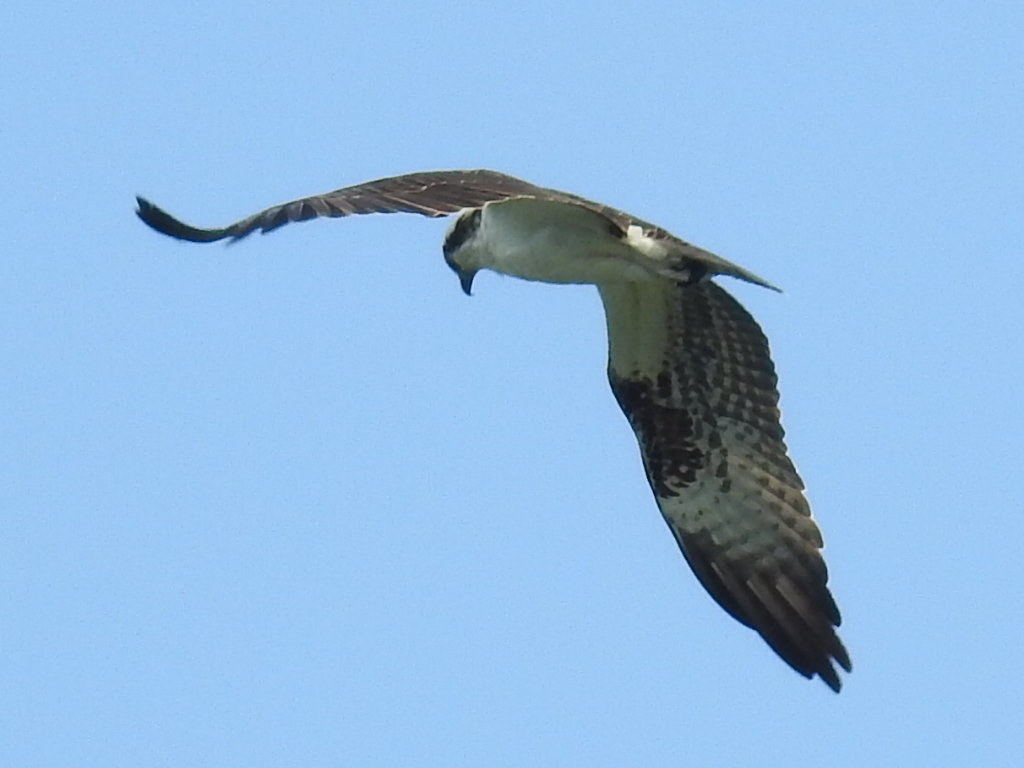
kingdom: Animalia
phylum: Chordata
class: Aves
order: Accipitriformes
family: Pandionidae
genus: Pandion
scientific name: Pandion haliaetus
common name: Osprey
